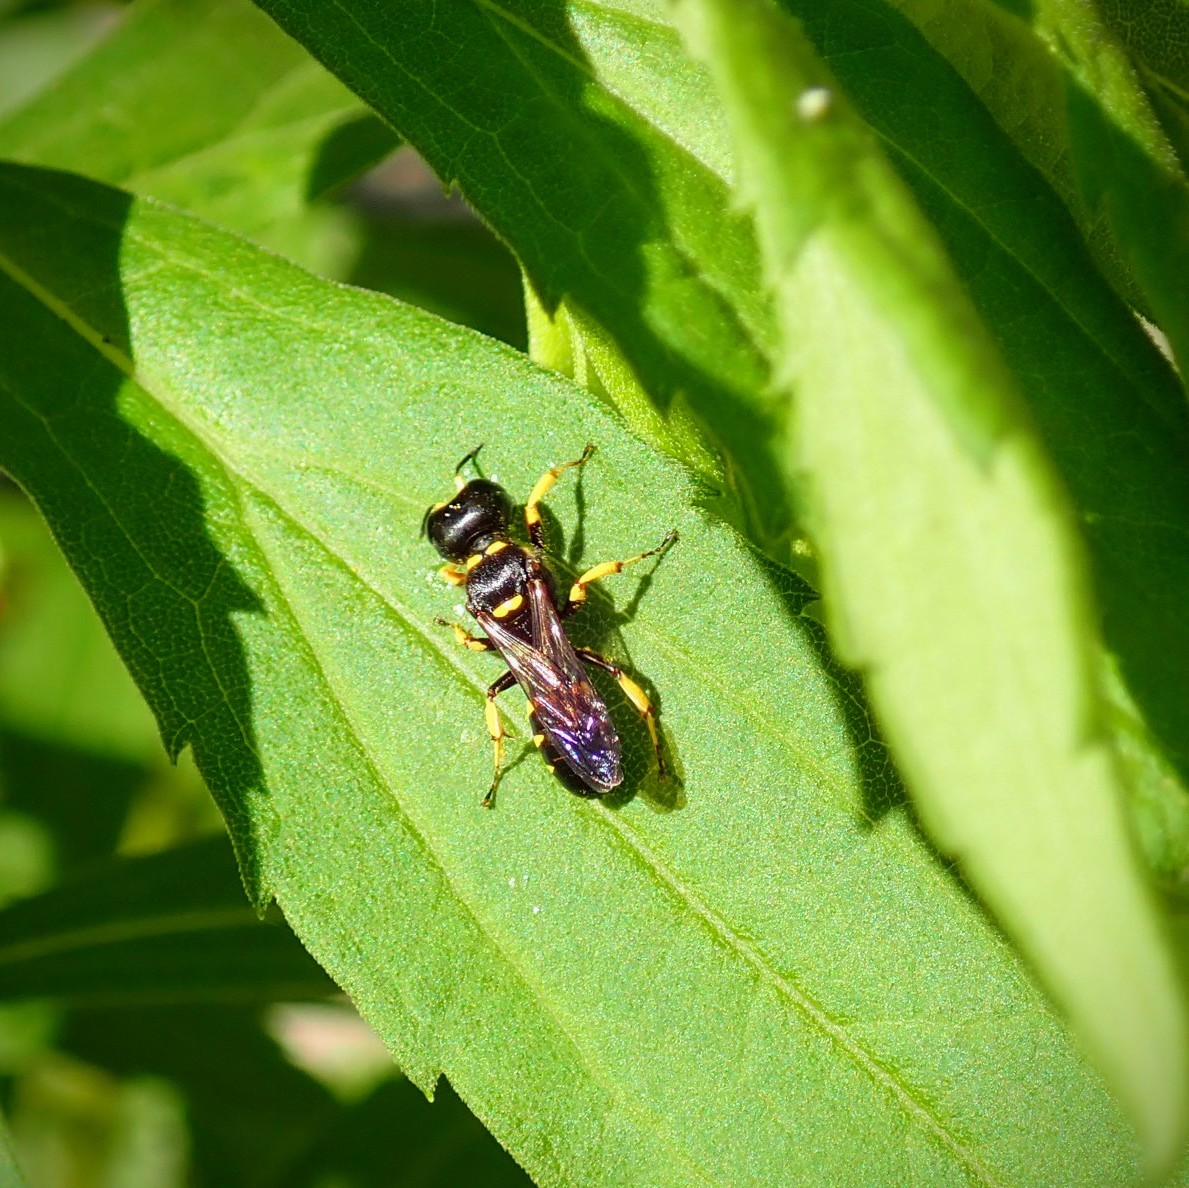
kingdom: Animalia
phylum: Arthropoda
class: Insecta
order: Hymenoptera
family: Crabronidae
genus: Ectemnius
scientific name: Ectemnius maculosus
